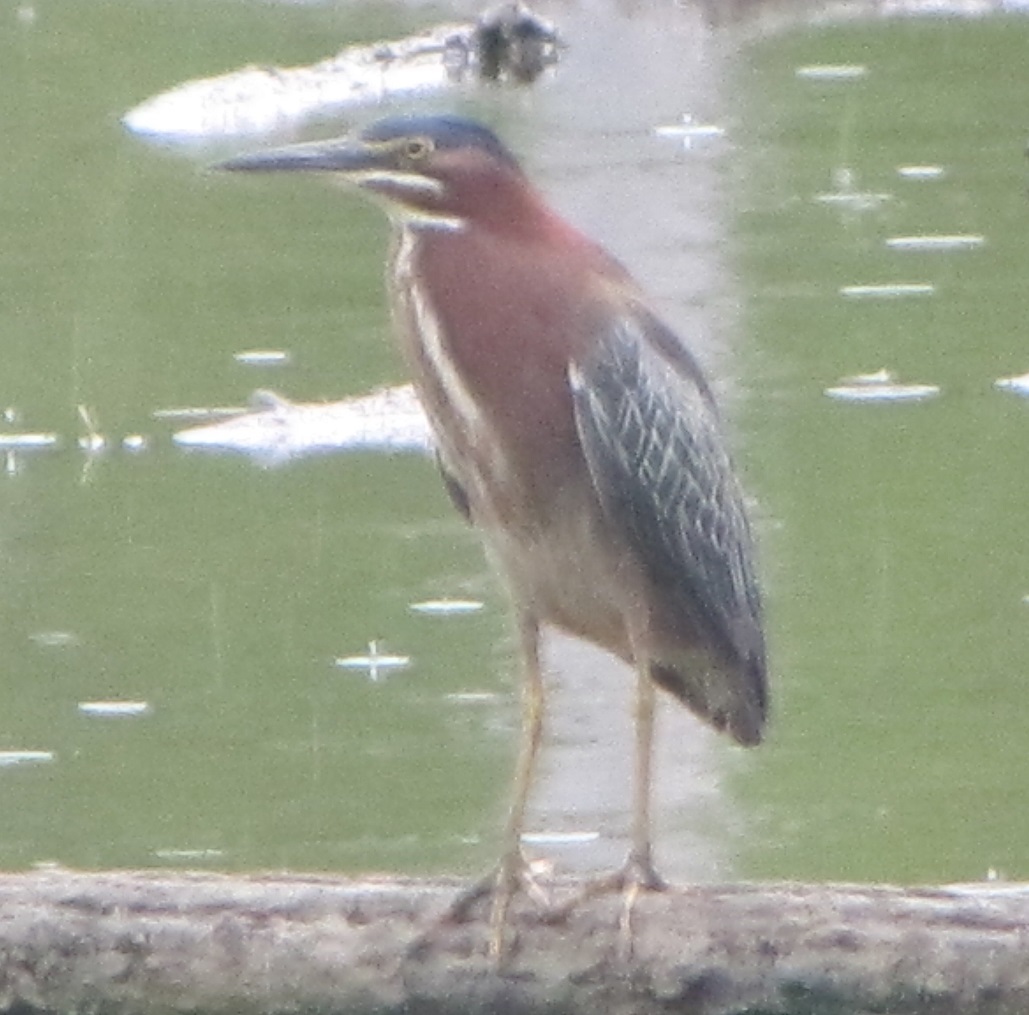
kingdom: Animalia
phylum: Chordata
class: Aves
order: Pelecaniformes
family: Ardeidae
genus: Butorides
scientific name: Butorides virescens
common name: Green heron
